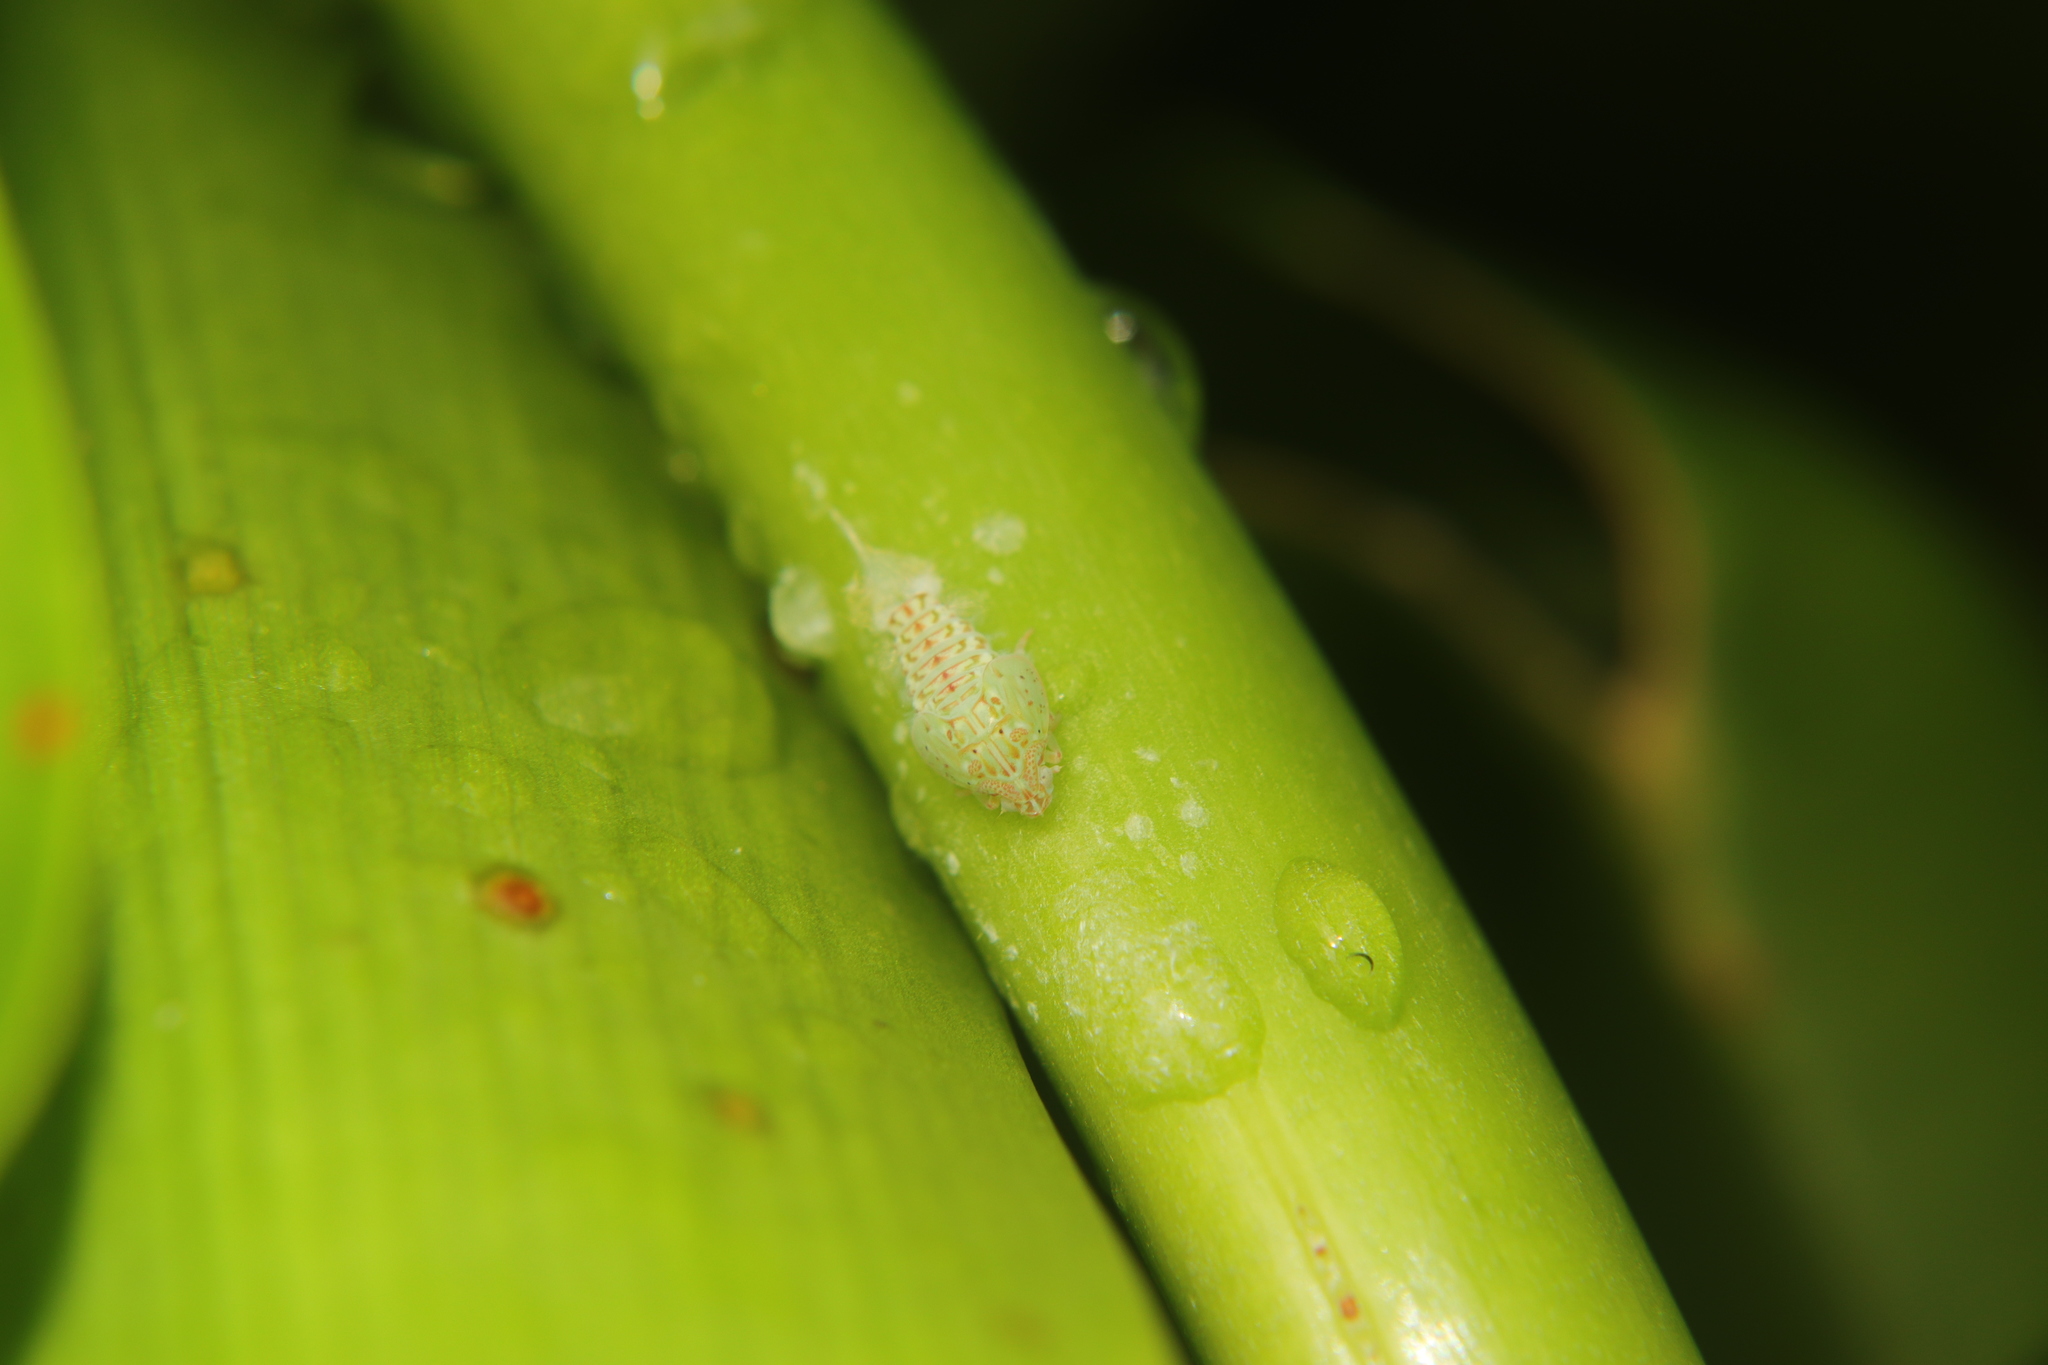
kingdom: Animalia
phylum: Arthropoda
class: Insecta
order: Hemiptera
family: Flatidae
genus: Siphanta
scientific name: Siphanta acuta
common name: Torpedo bug
